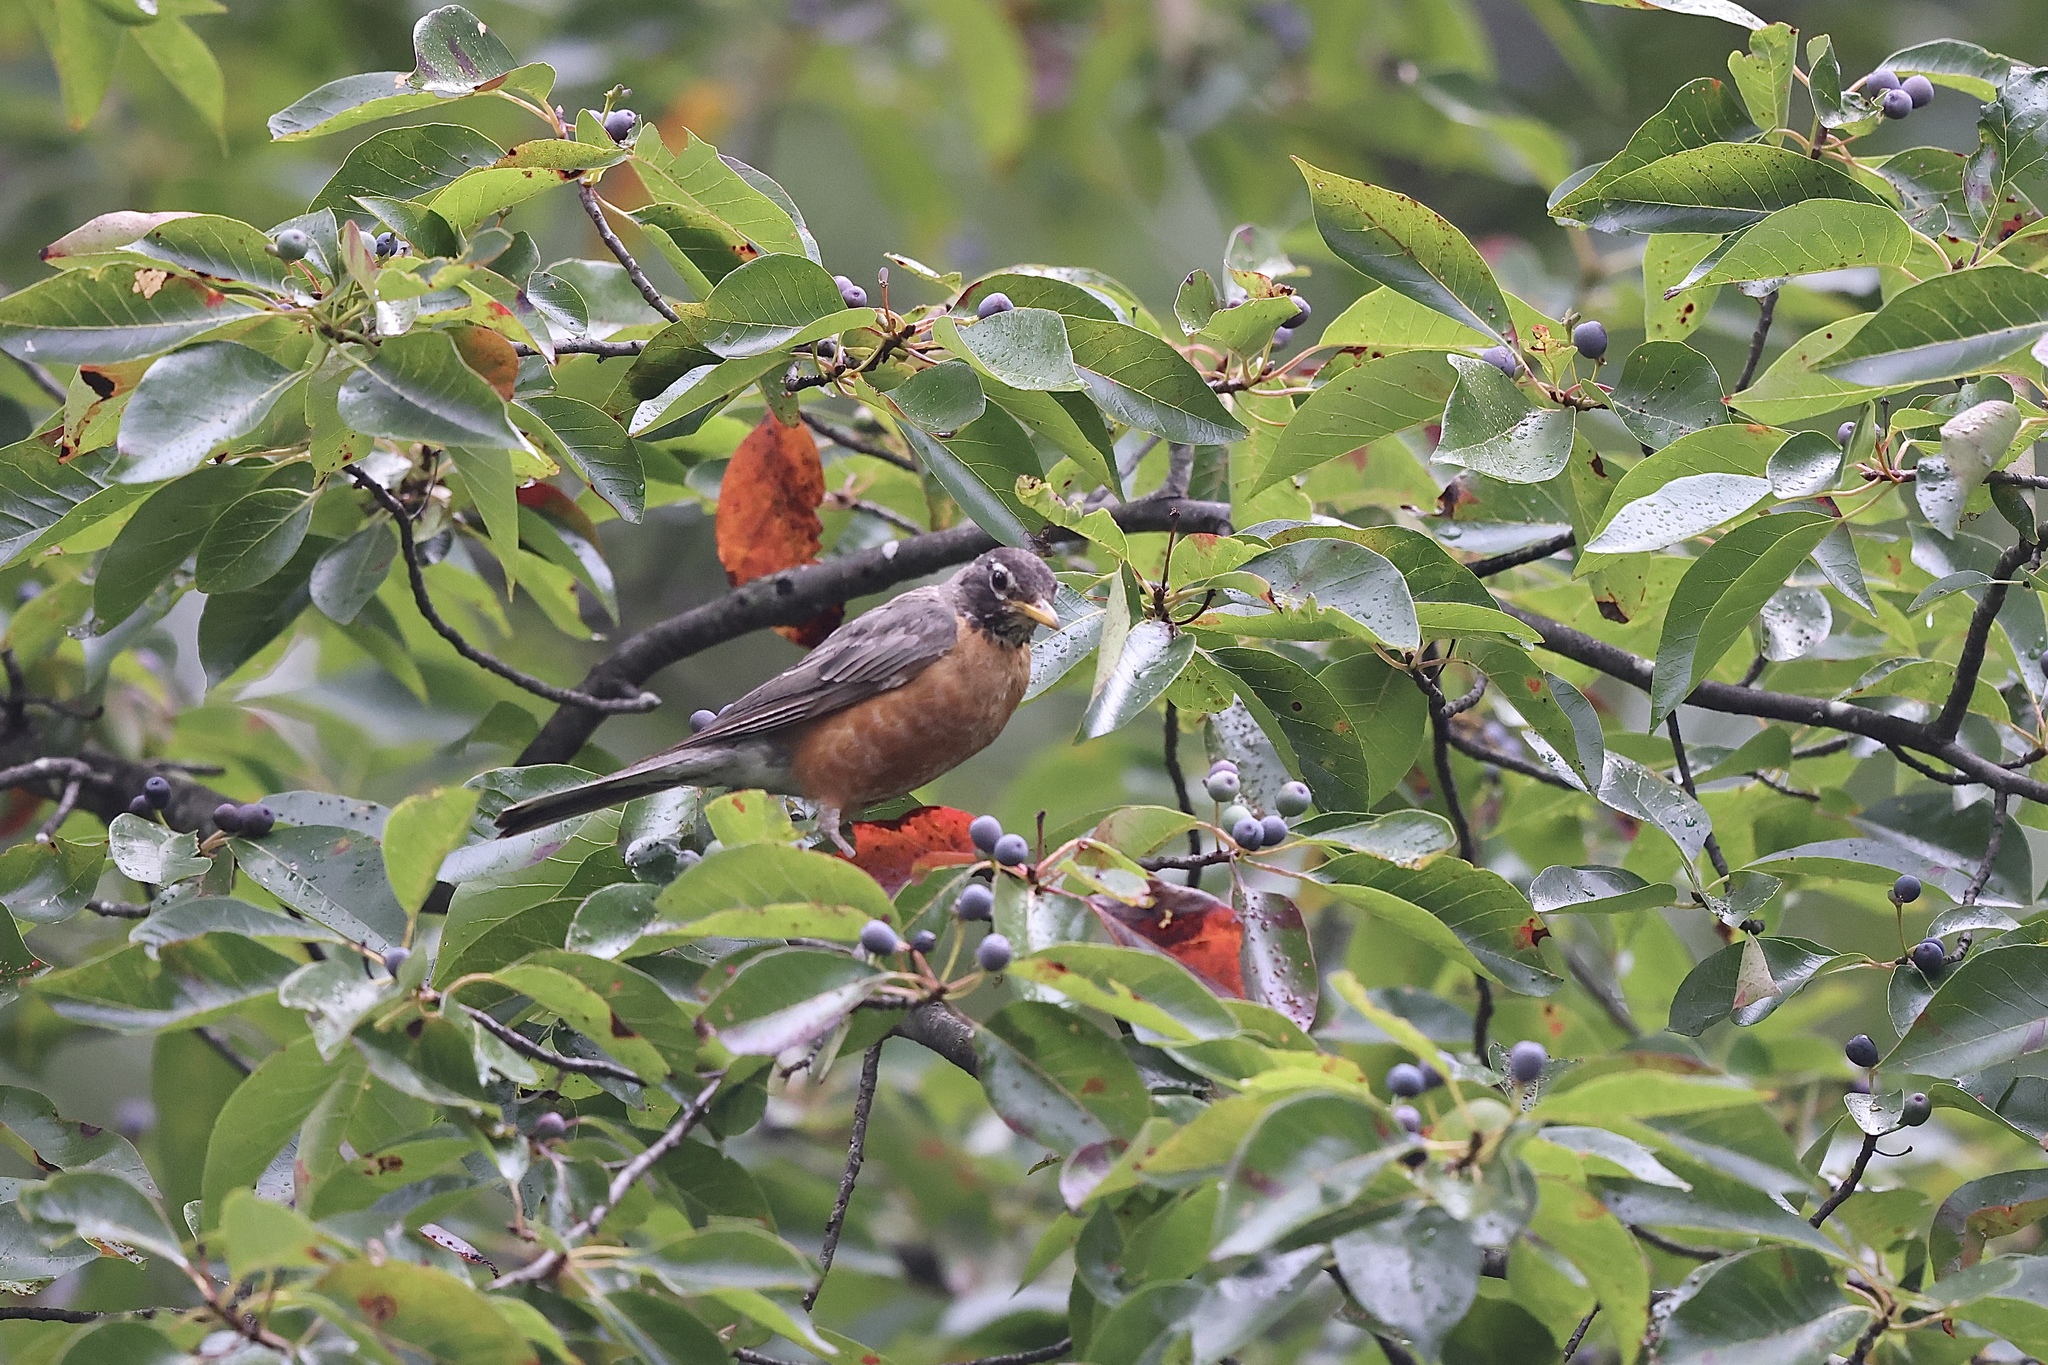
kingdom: Animalia
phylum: Chordata
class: Aves
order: Passeriformes
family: Turdidae
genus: Turdus
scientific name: Turdus migratorius
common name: American robin
